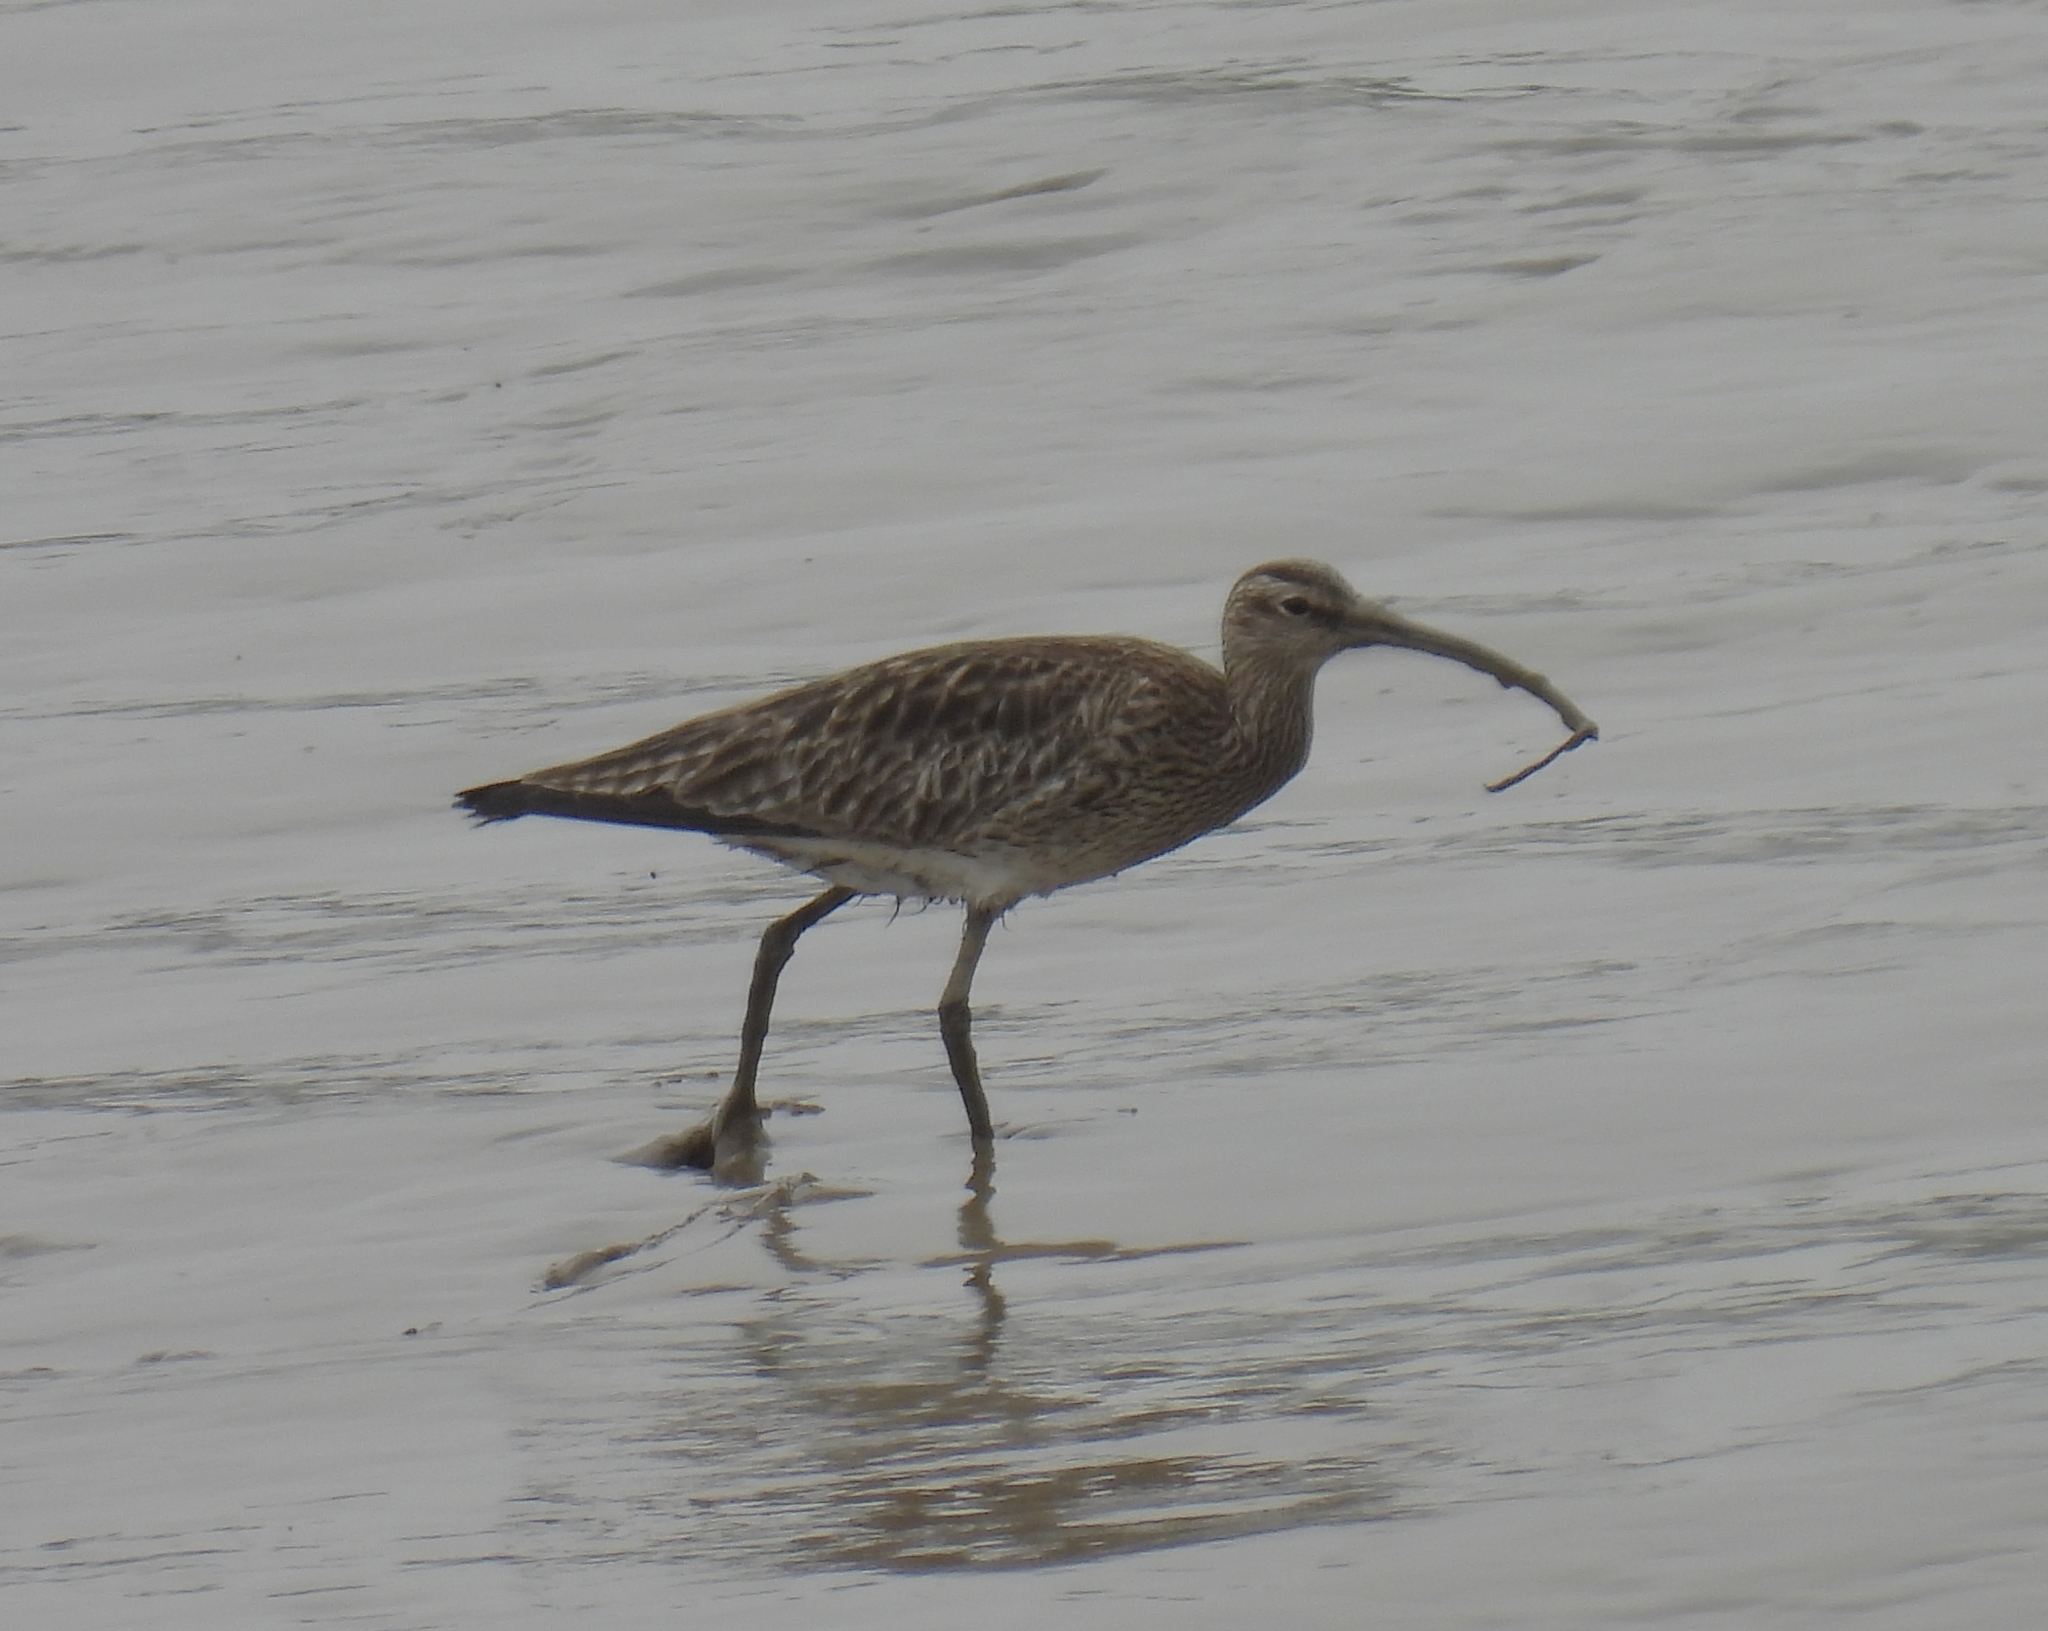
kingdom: Animalia
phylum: Chordata
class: Aves
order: Charadriiformes
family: Scolopacidae
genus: Numenius
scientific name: Numenius phaeopus
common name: Whimbrel
